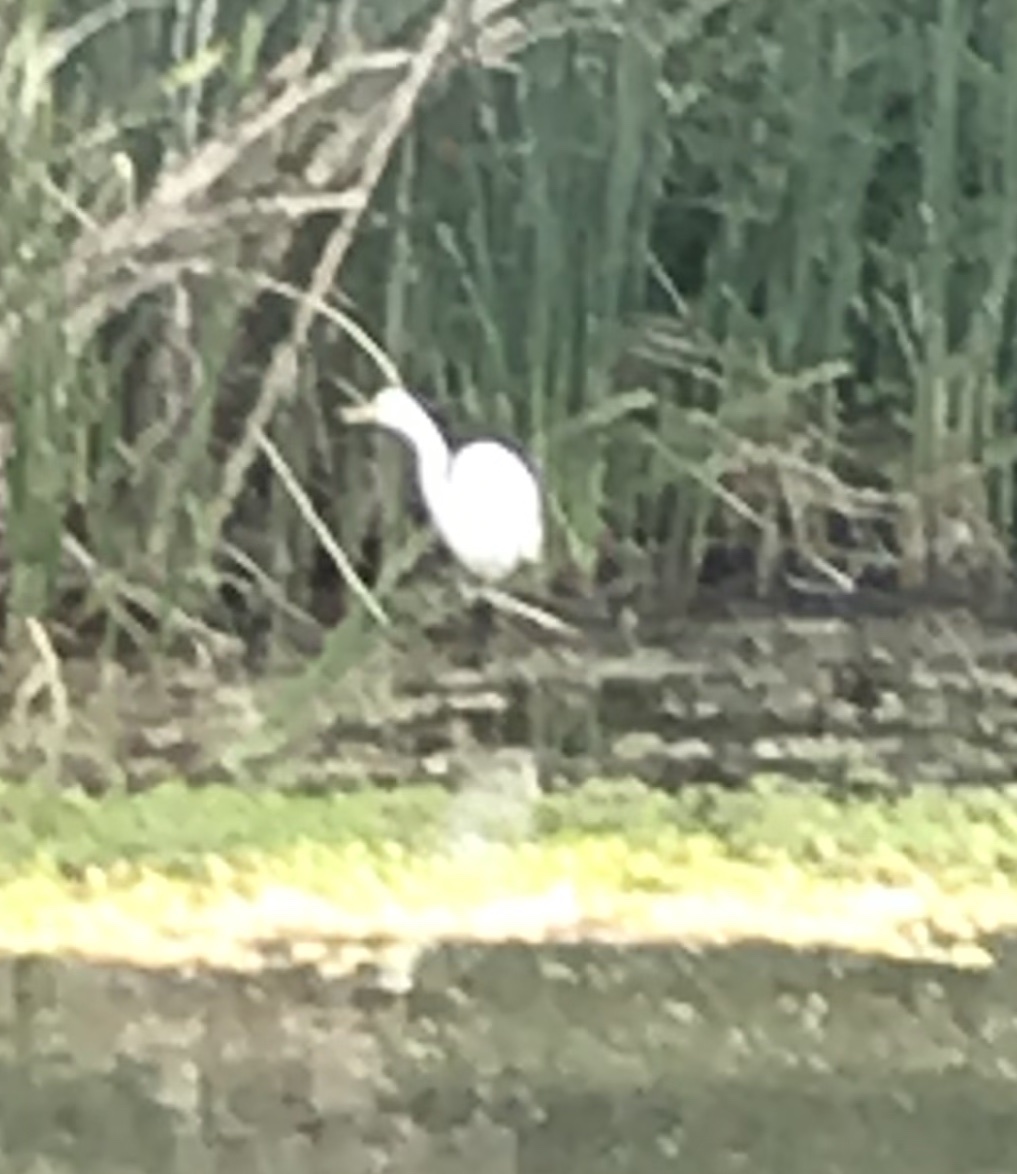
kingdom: Animalia
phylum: Chordata
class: Aves
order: Pelecaniformes
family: Ardeidae
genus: Ardea
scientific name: Ardea alba
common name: Great egret
